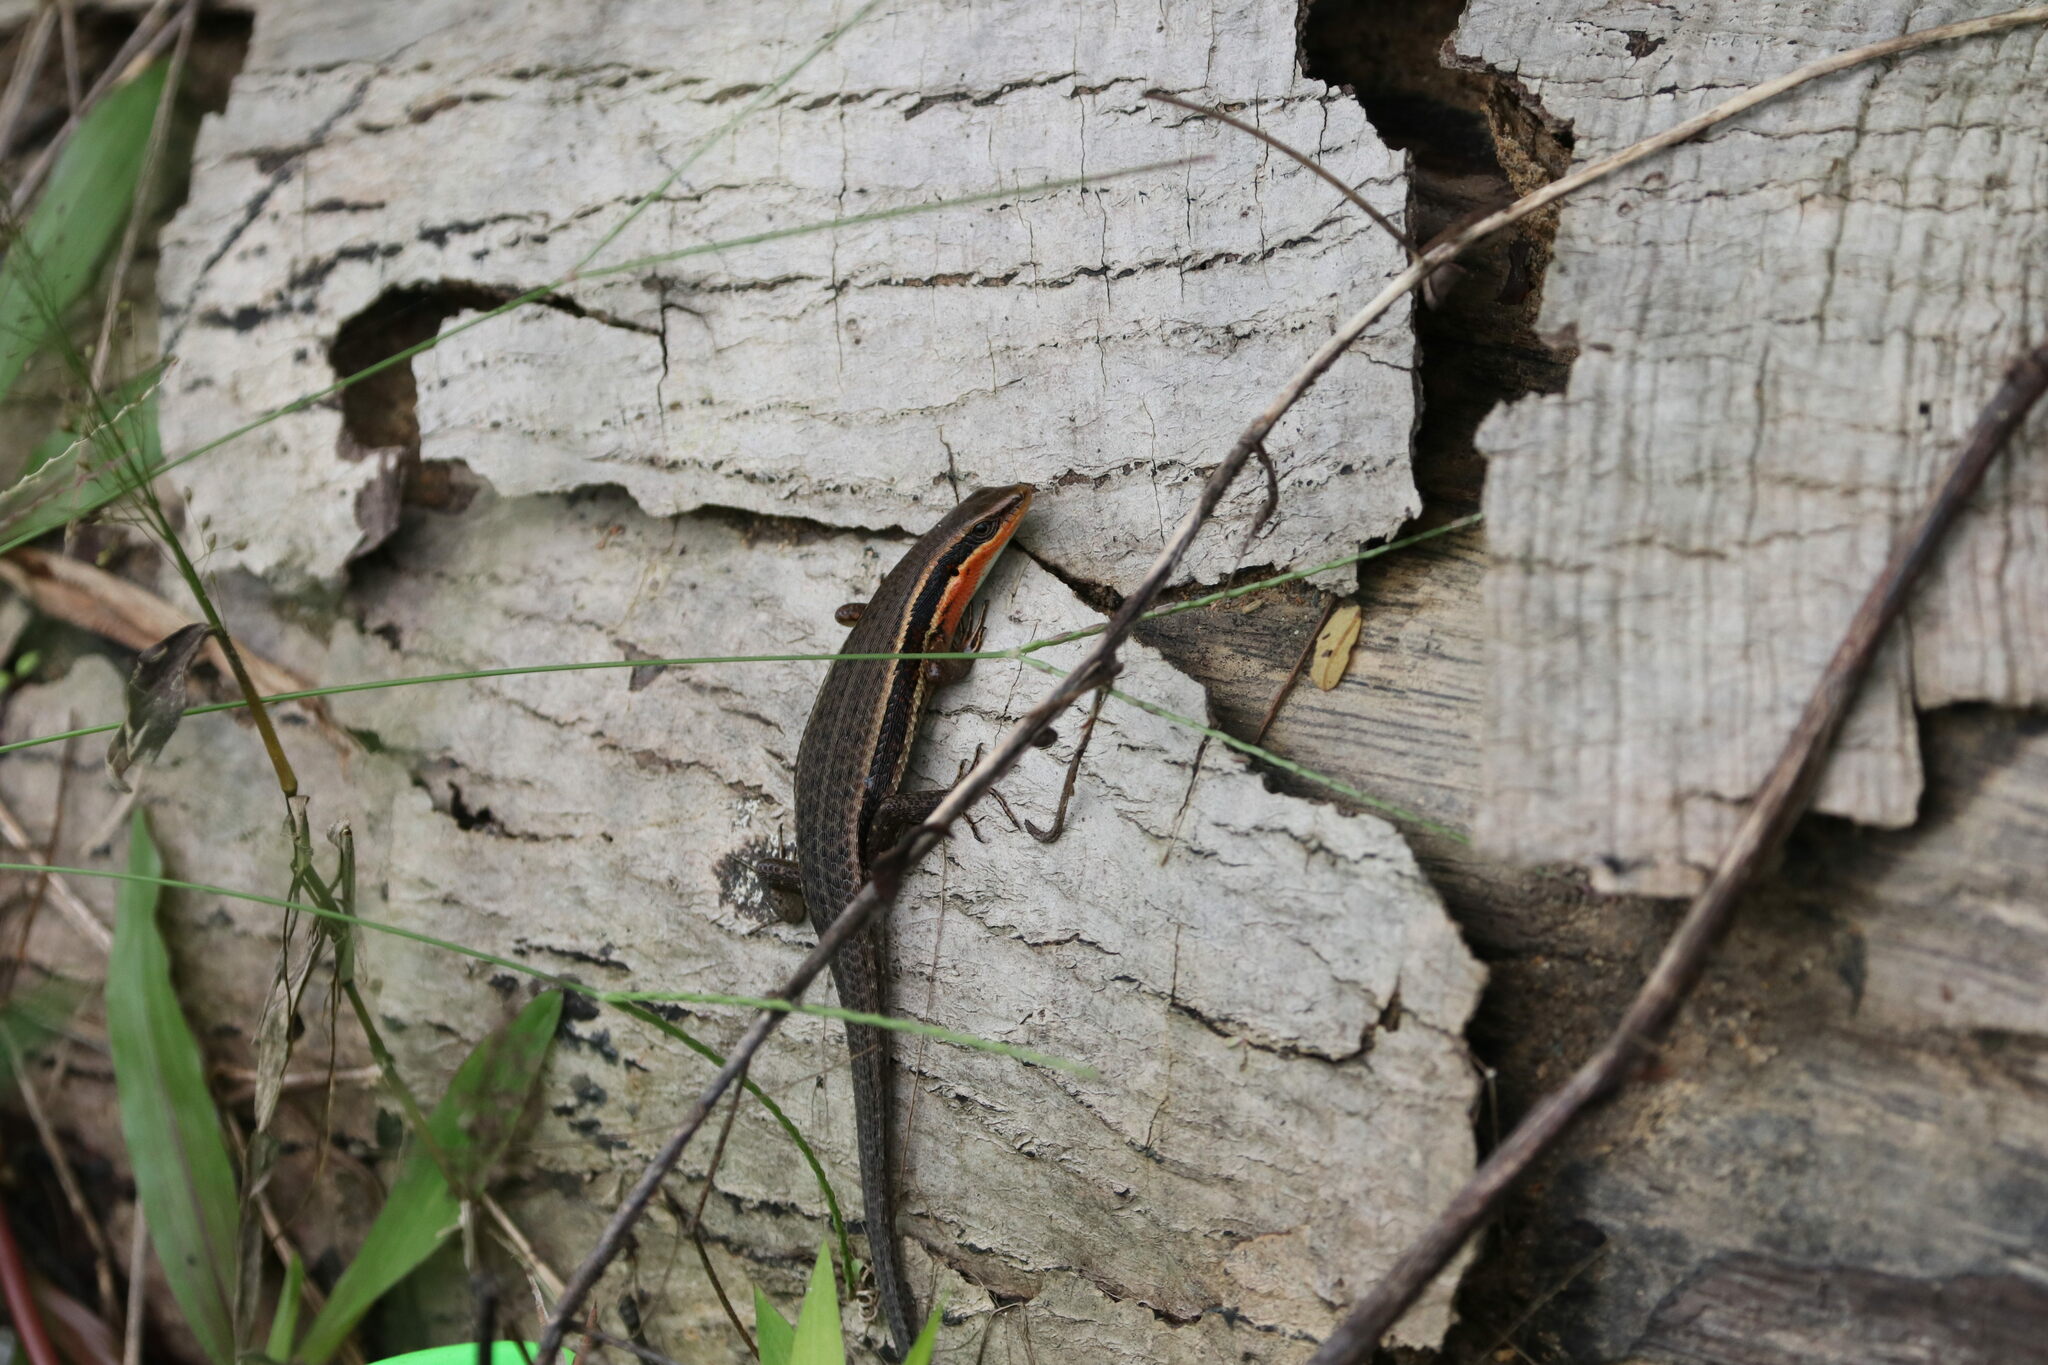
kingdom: Animalia
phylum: Chordata
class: Squamata
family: Scincidae
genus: Eutropis
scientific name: Eutropis sahulinghangganan
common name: Palawan sun skink
